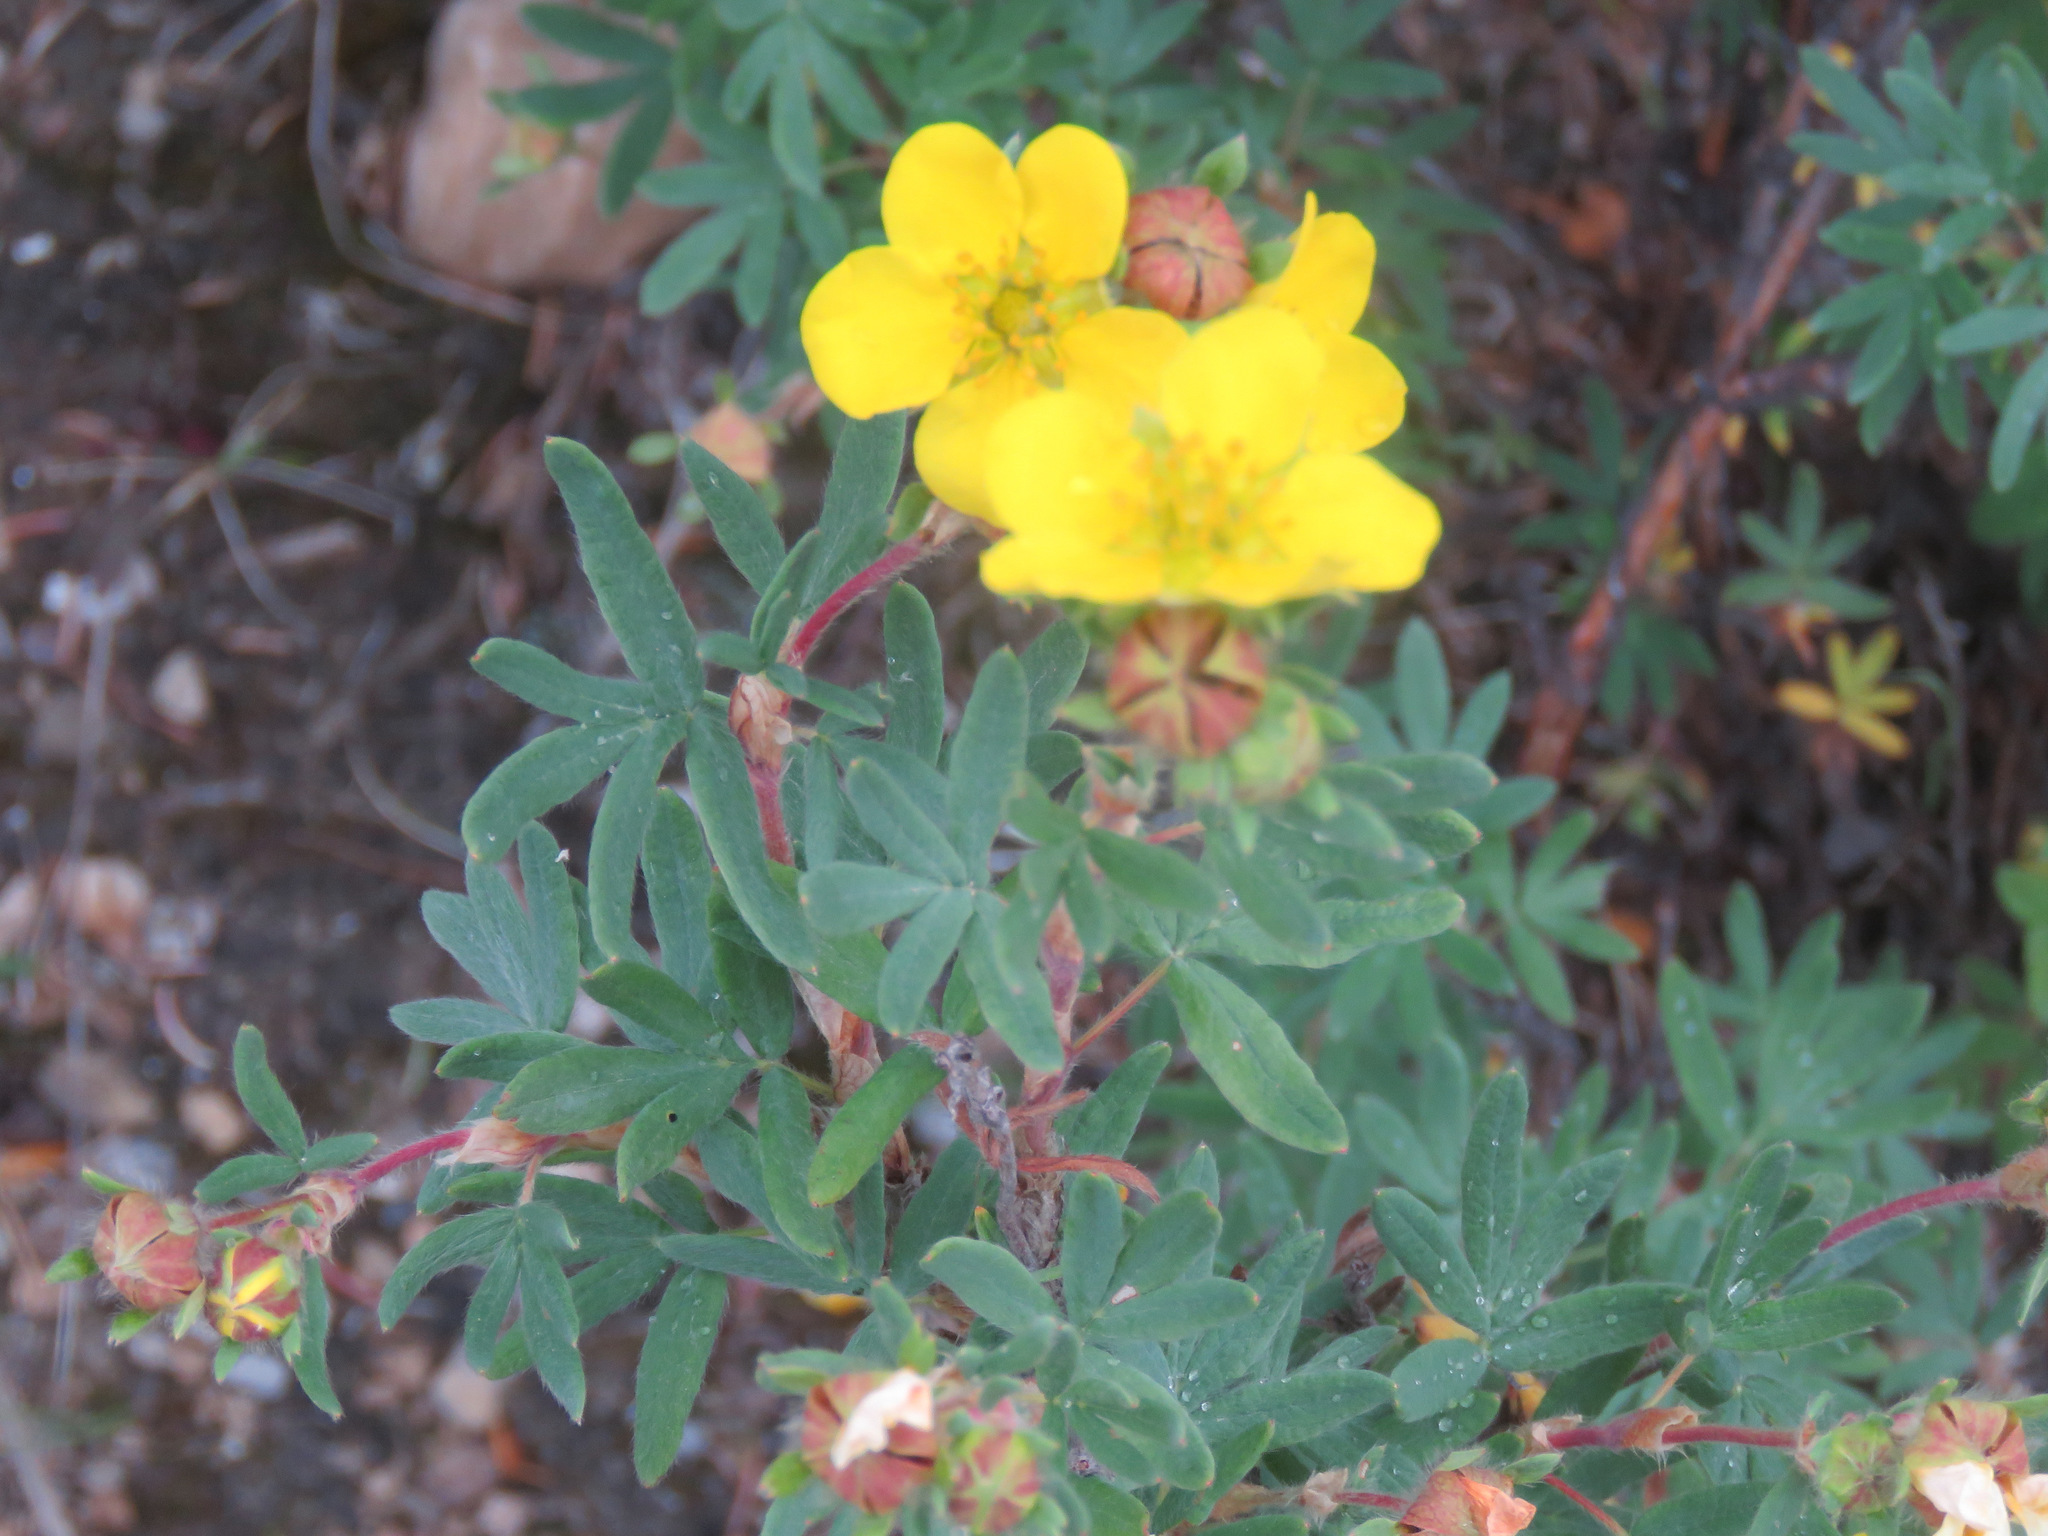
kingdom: Plantae
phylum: Tracheophyta
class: Magnoliopsida
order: Rosales
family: Rosaceae
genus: Dasiphora
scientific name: Dasiphora fruticosa
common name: Shrubby cinquefoil
